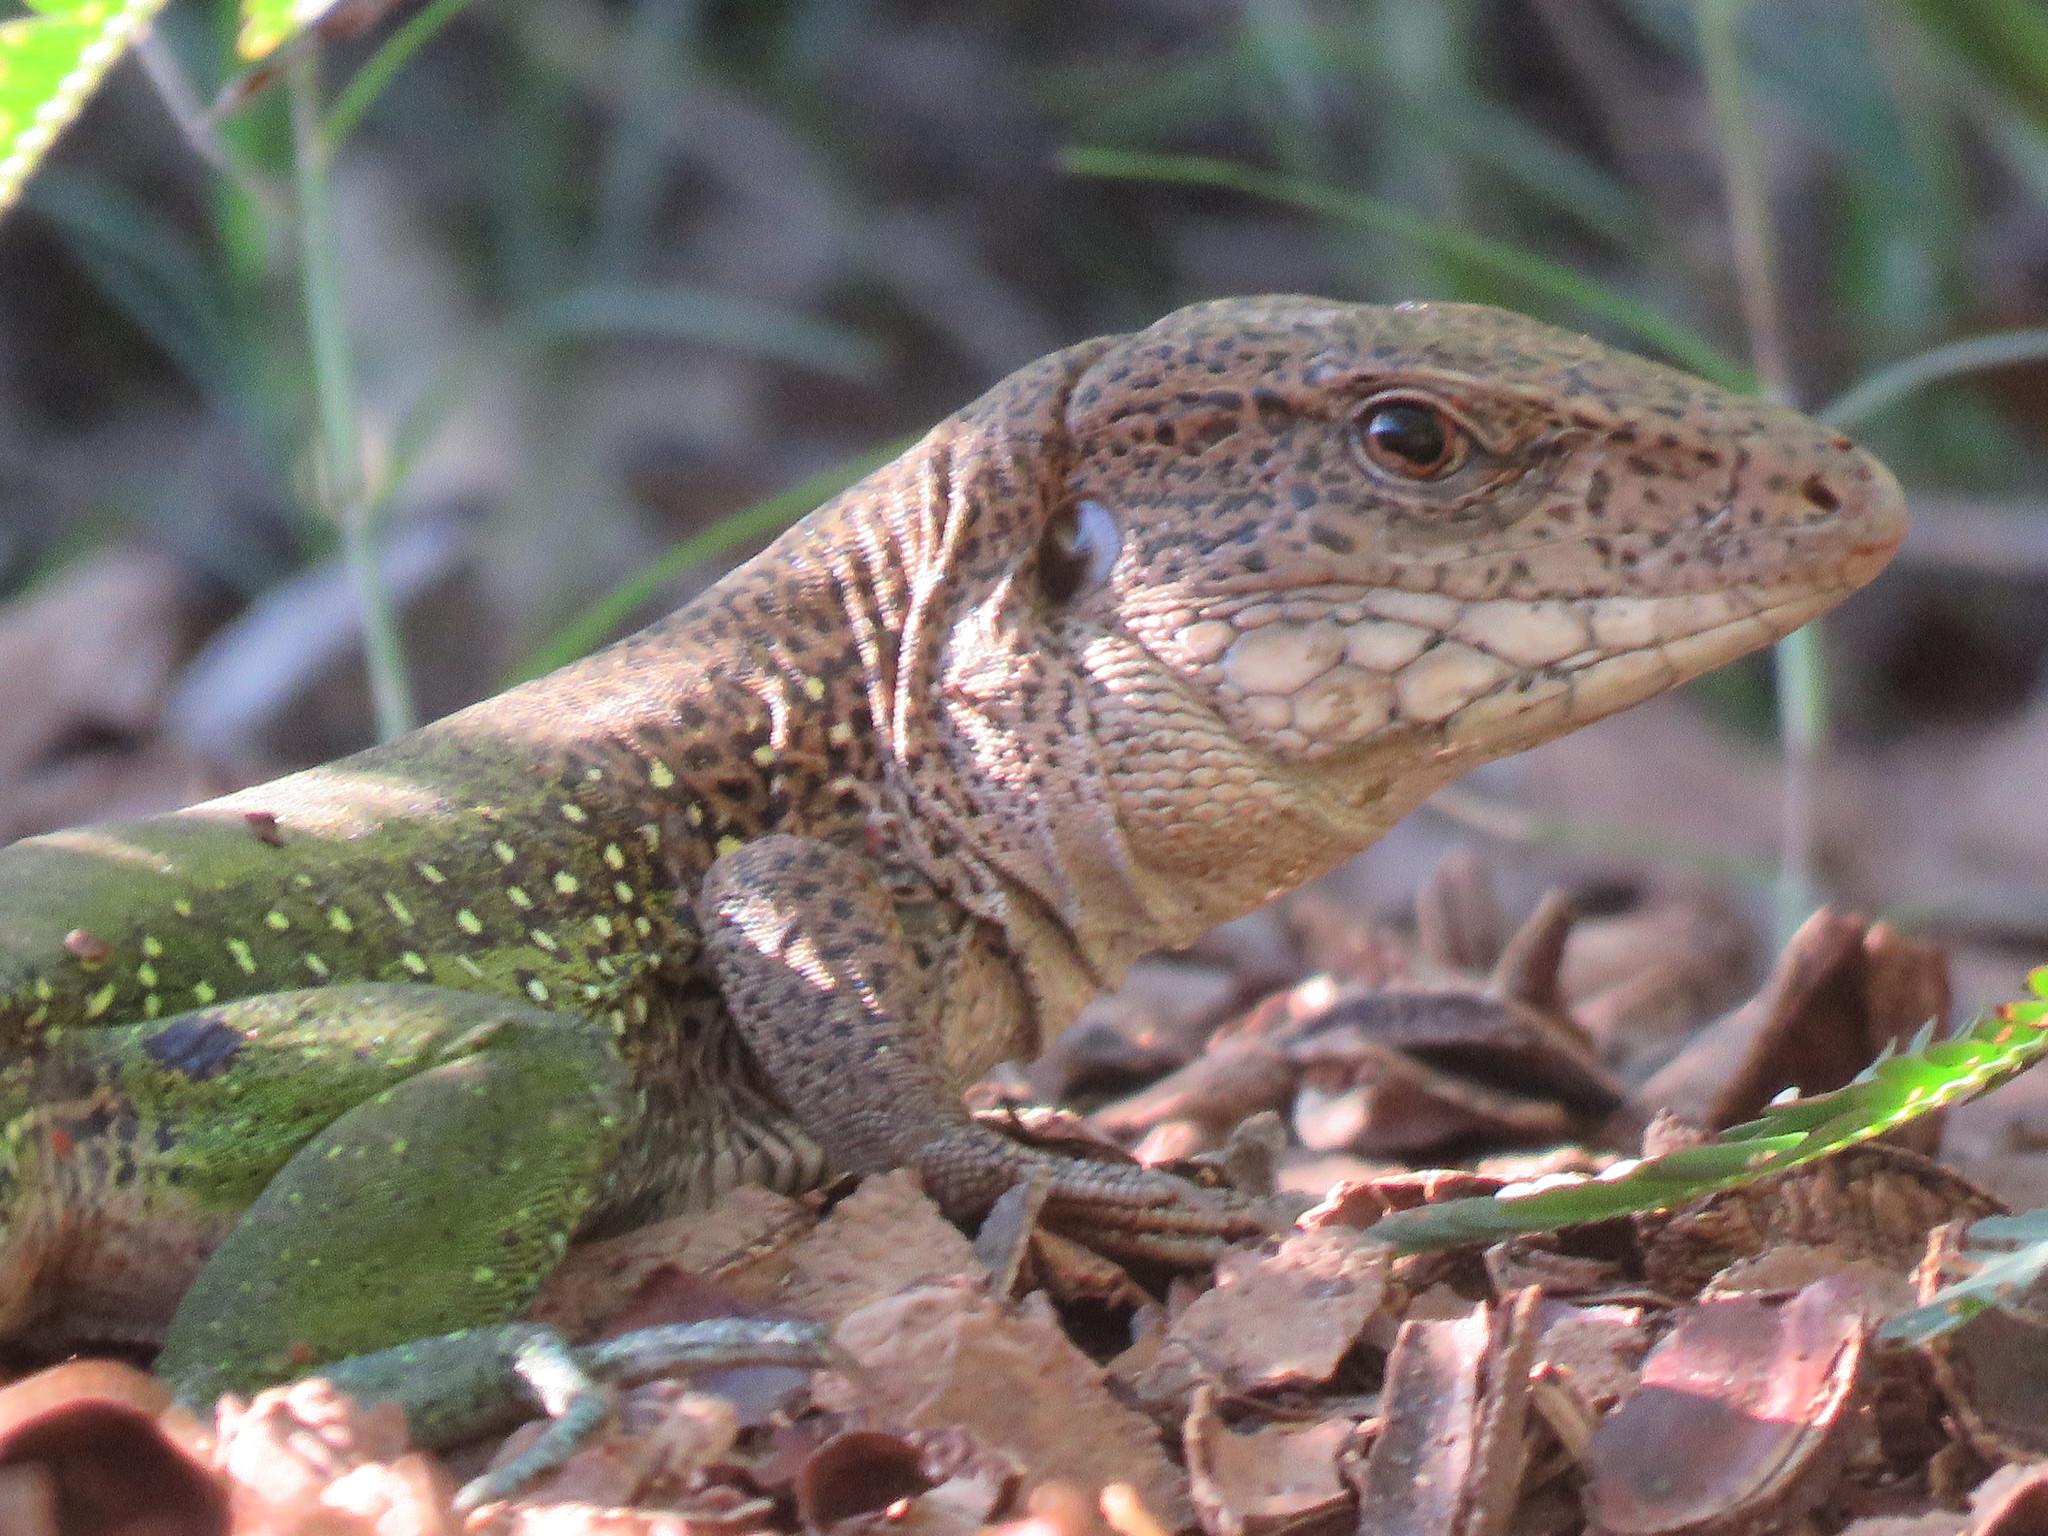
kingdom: Animalia
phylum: Chordata
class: Squamata
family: Teiidae
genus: Ameiva
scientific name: Ameiva ameiva
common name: Giant ameiva
